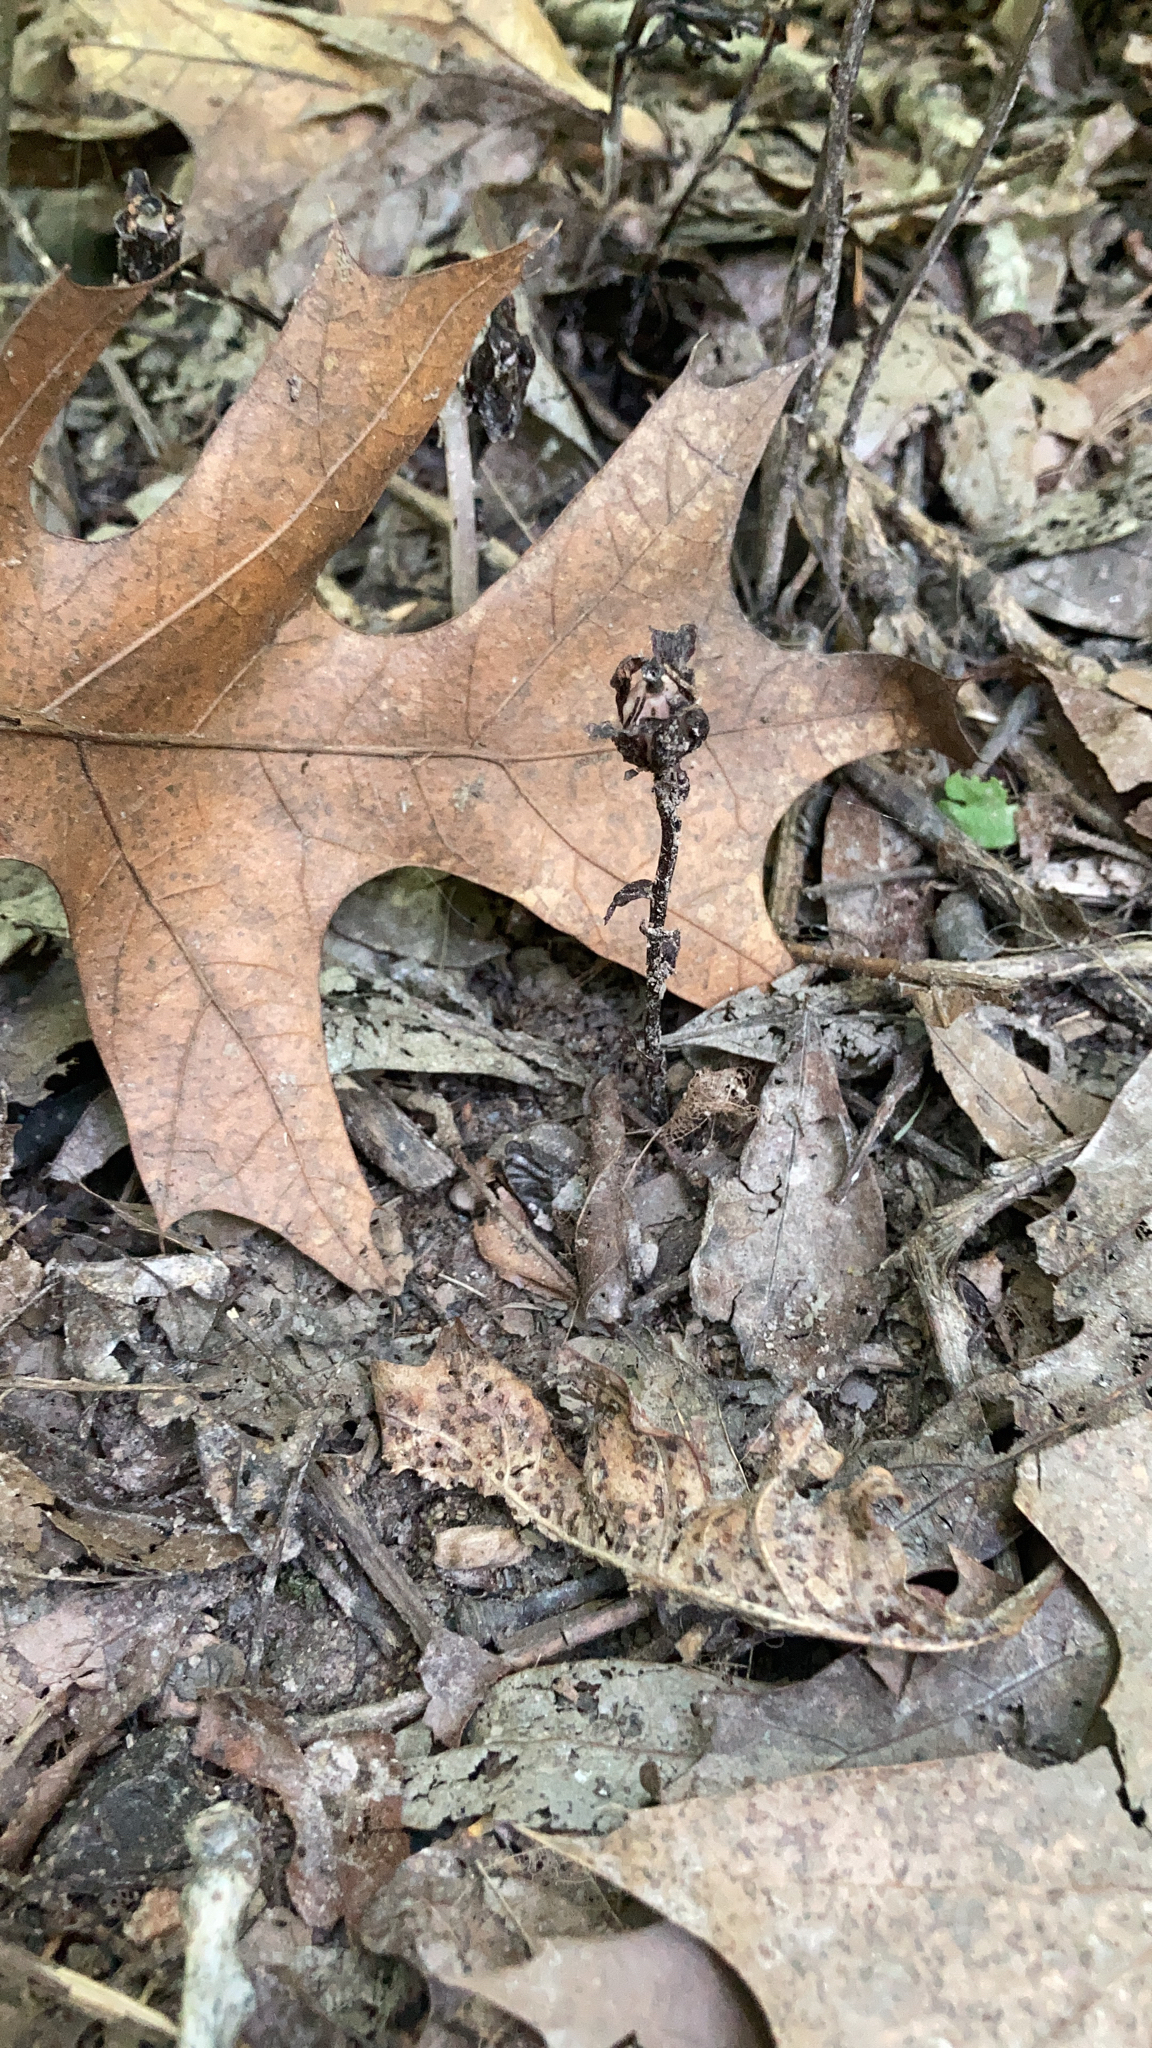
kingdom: Plantae
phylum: Tracheophyta
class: Magnoliopsida
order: Ericales
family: Ericaceae
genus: Monotropa
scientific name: Monotropa uniflora
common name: Convulsion root
